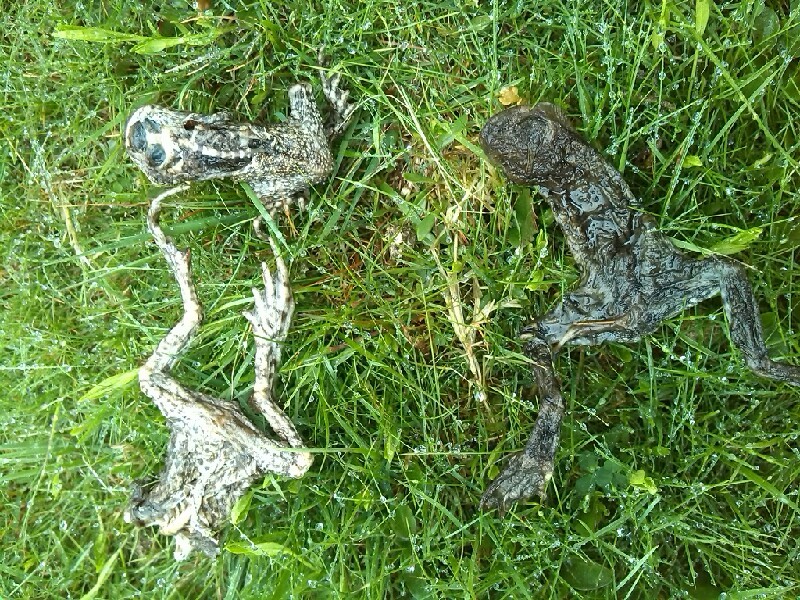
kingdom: Animalia
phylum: Chordata
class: Amphibia
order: Anura
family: Bufonidae
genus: Bufo
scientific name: Bufo bufo
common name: Common toad
